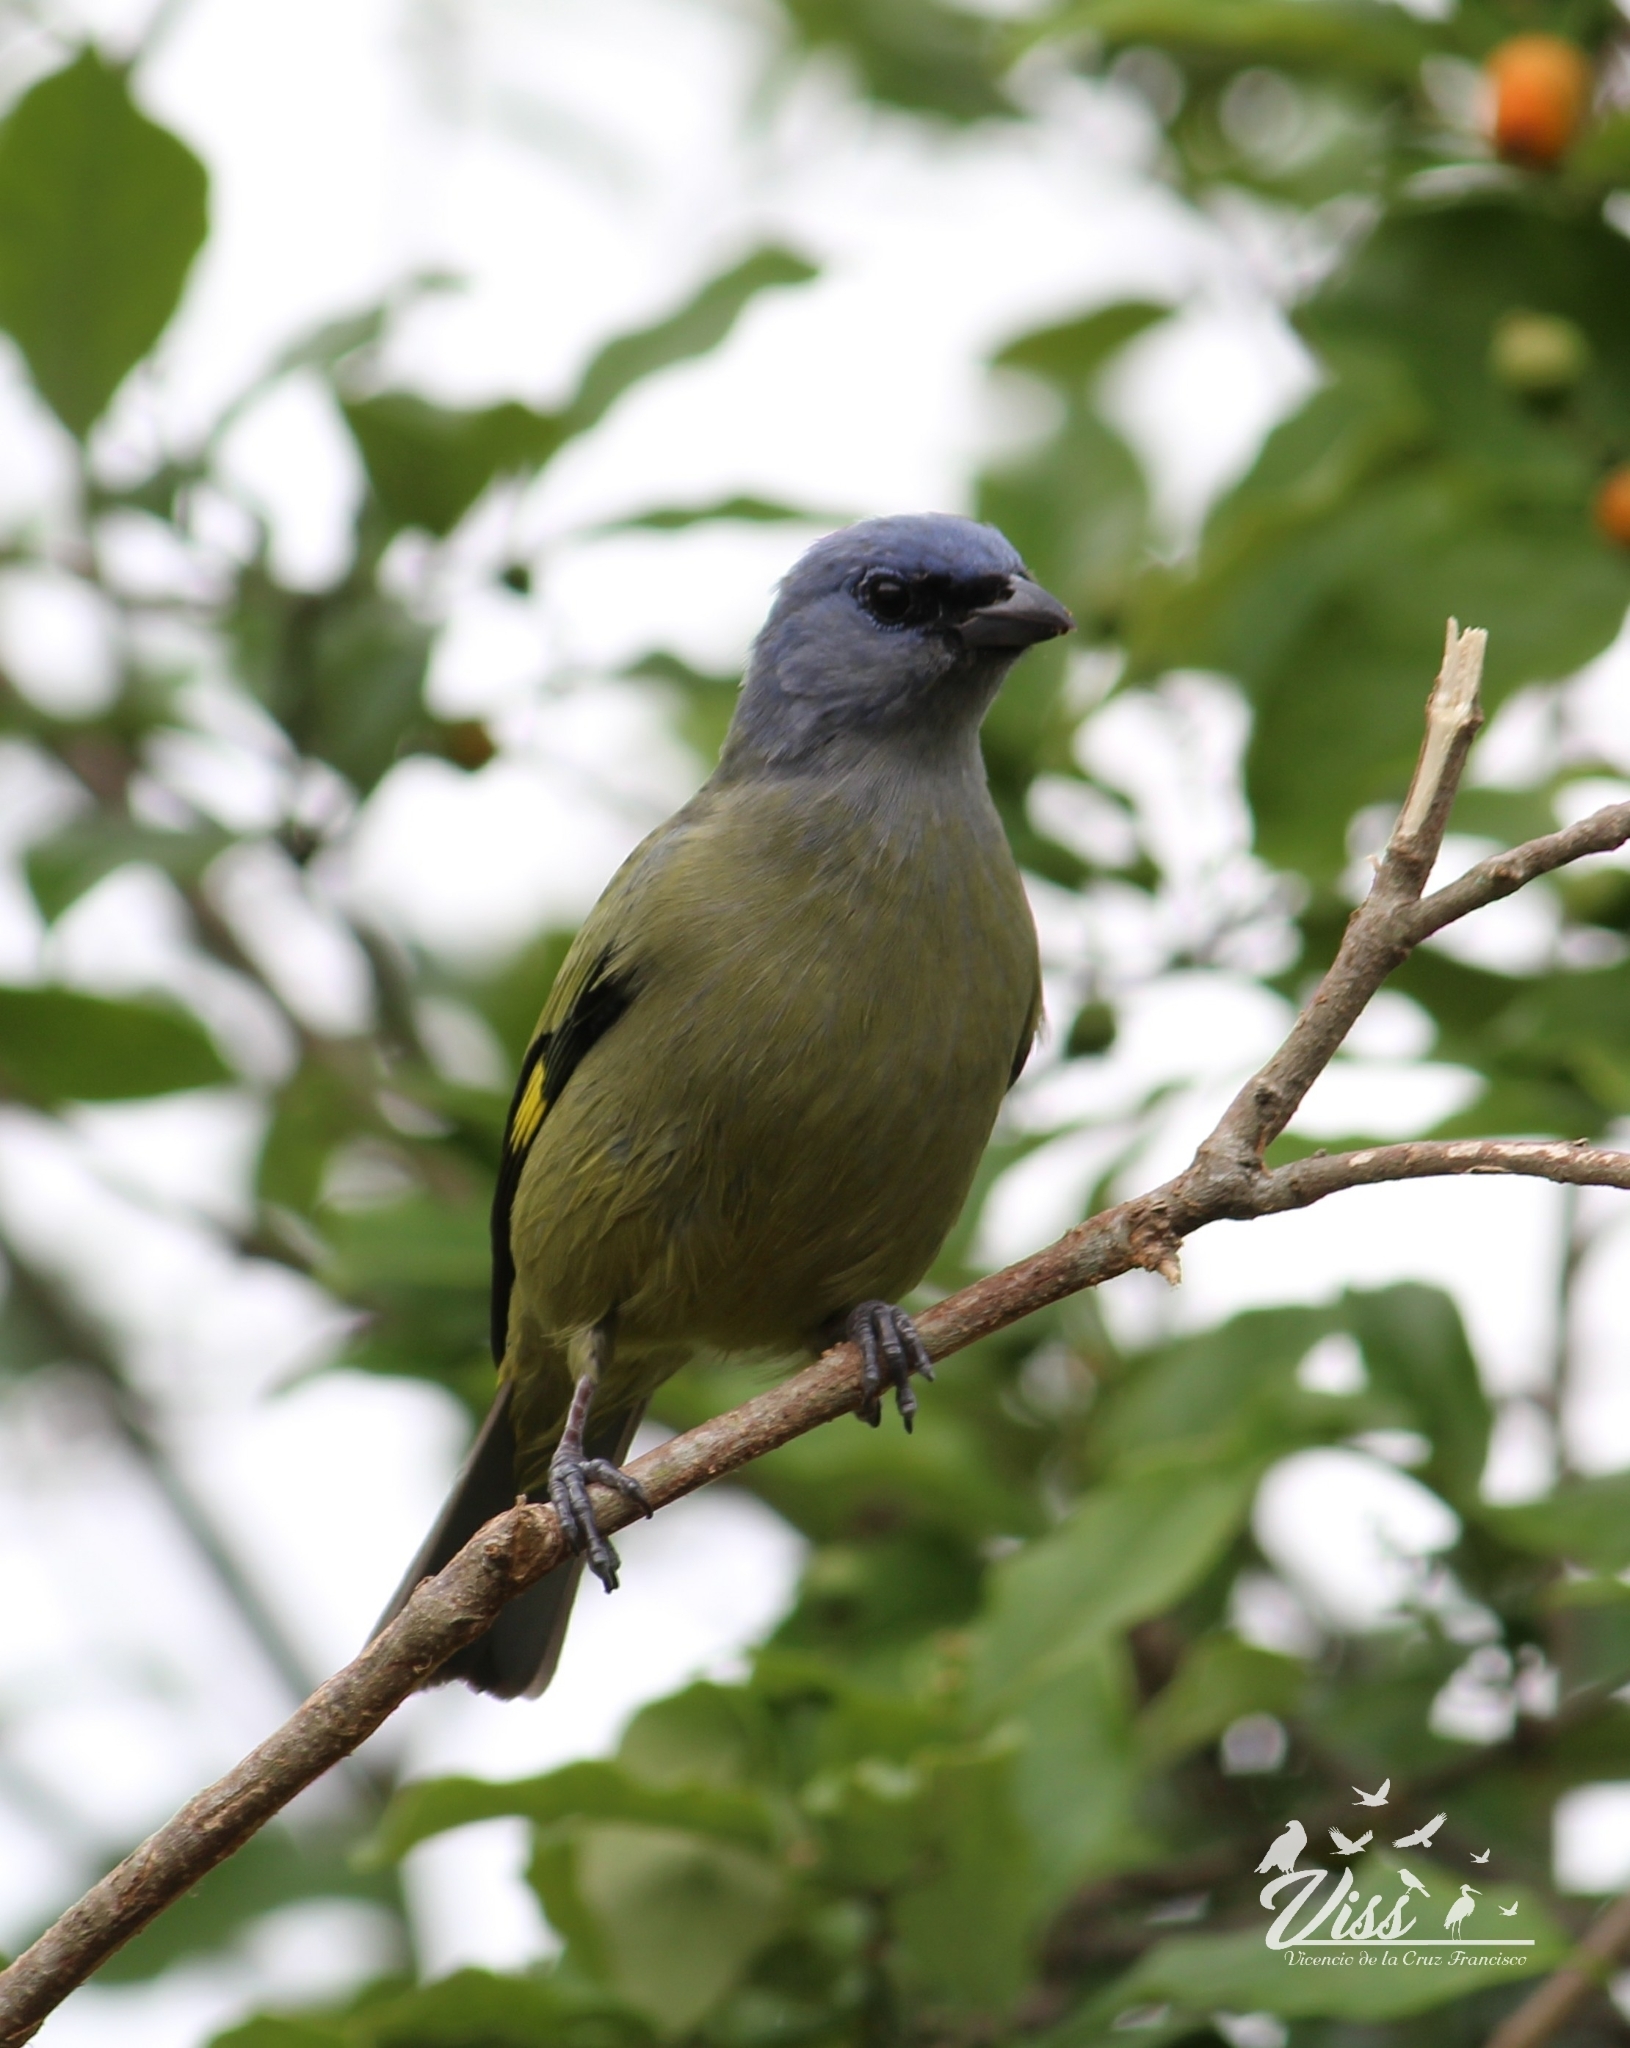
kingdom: Animalia
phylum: Chordata
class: Aves
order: Passeriformes
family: Thraupidae
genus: Thraupis
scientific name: Thraupis abbas
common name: Yellow-winged tanager
